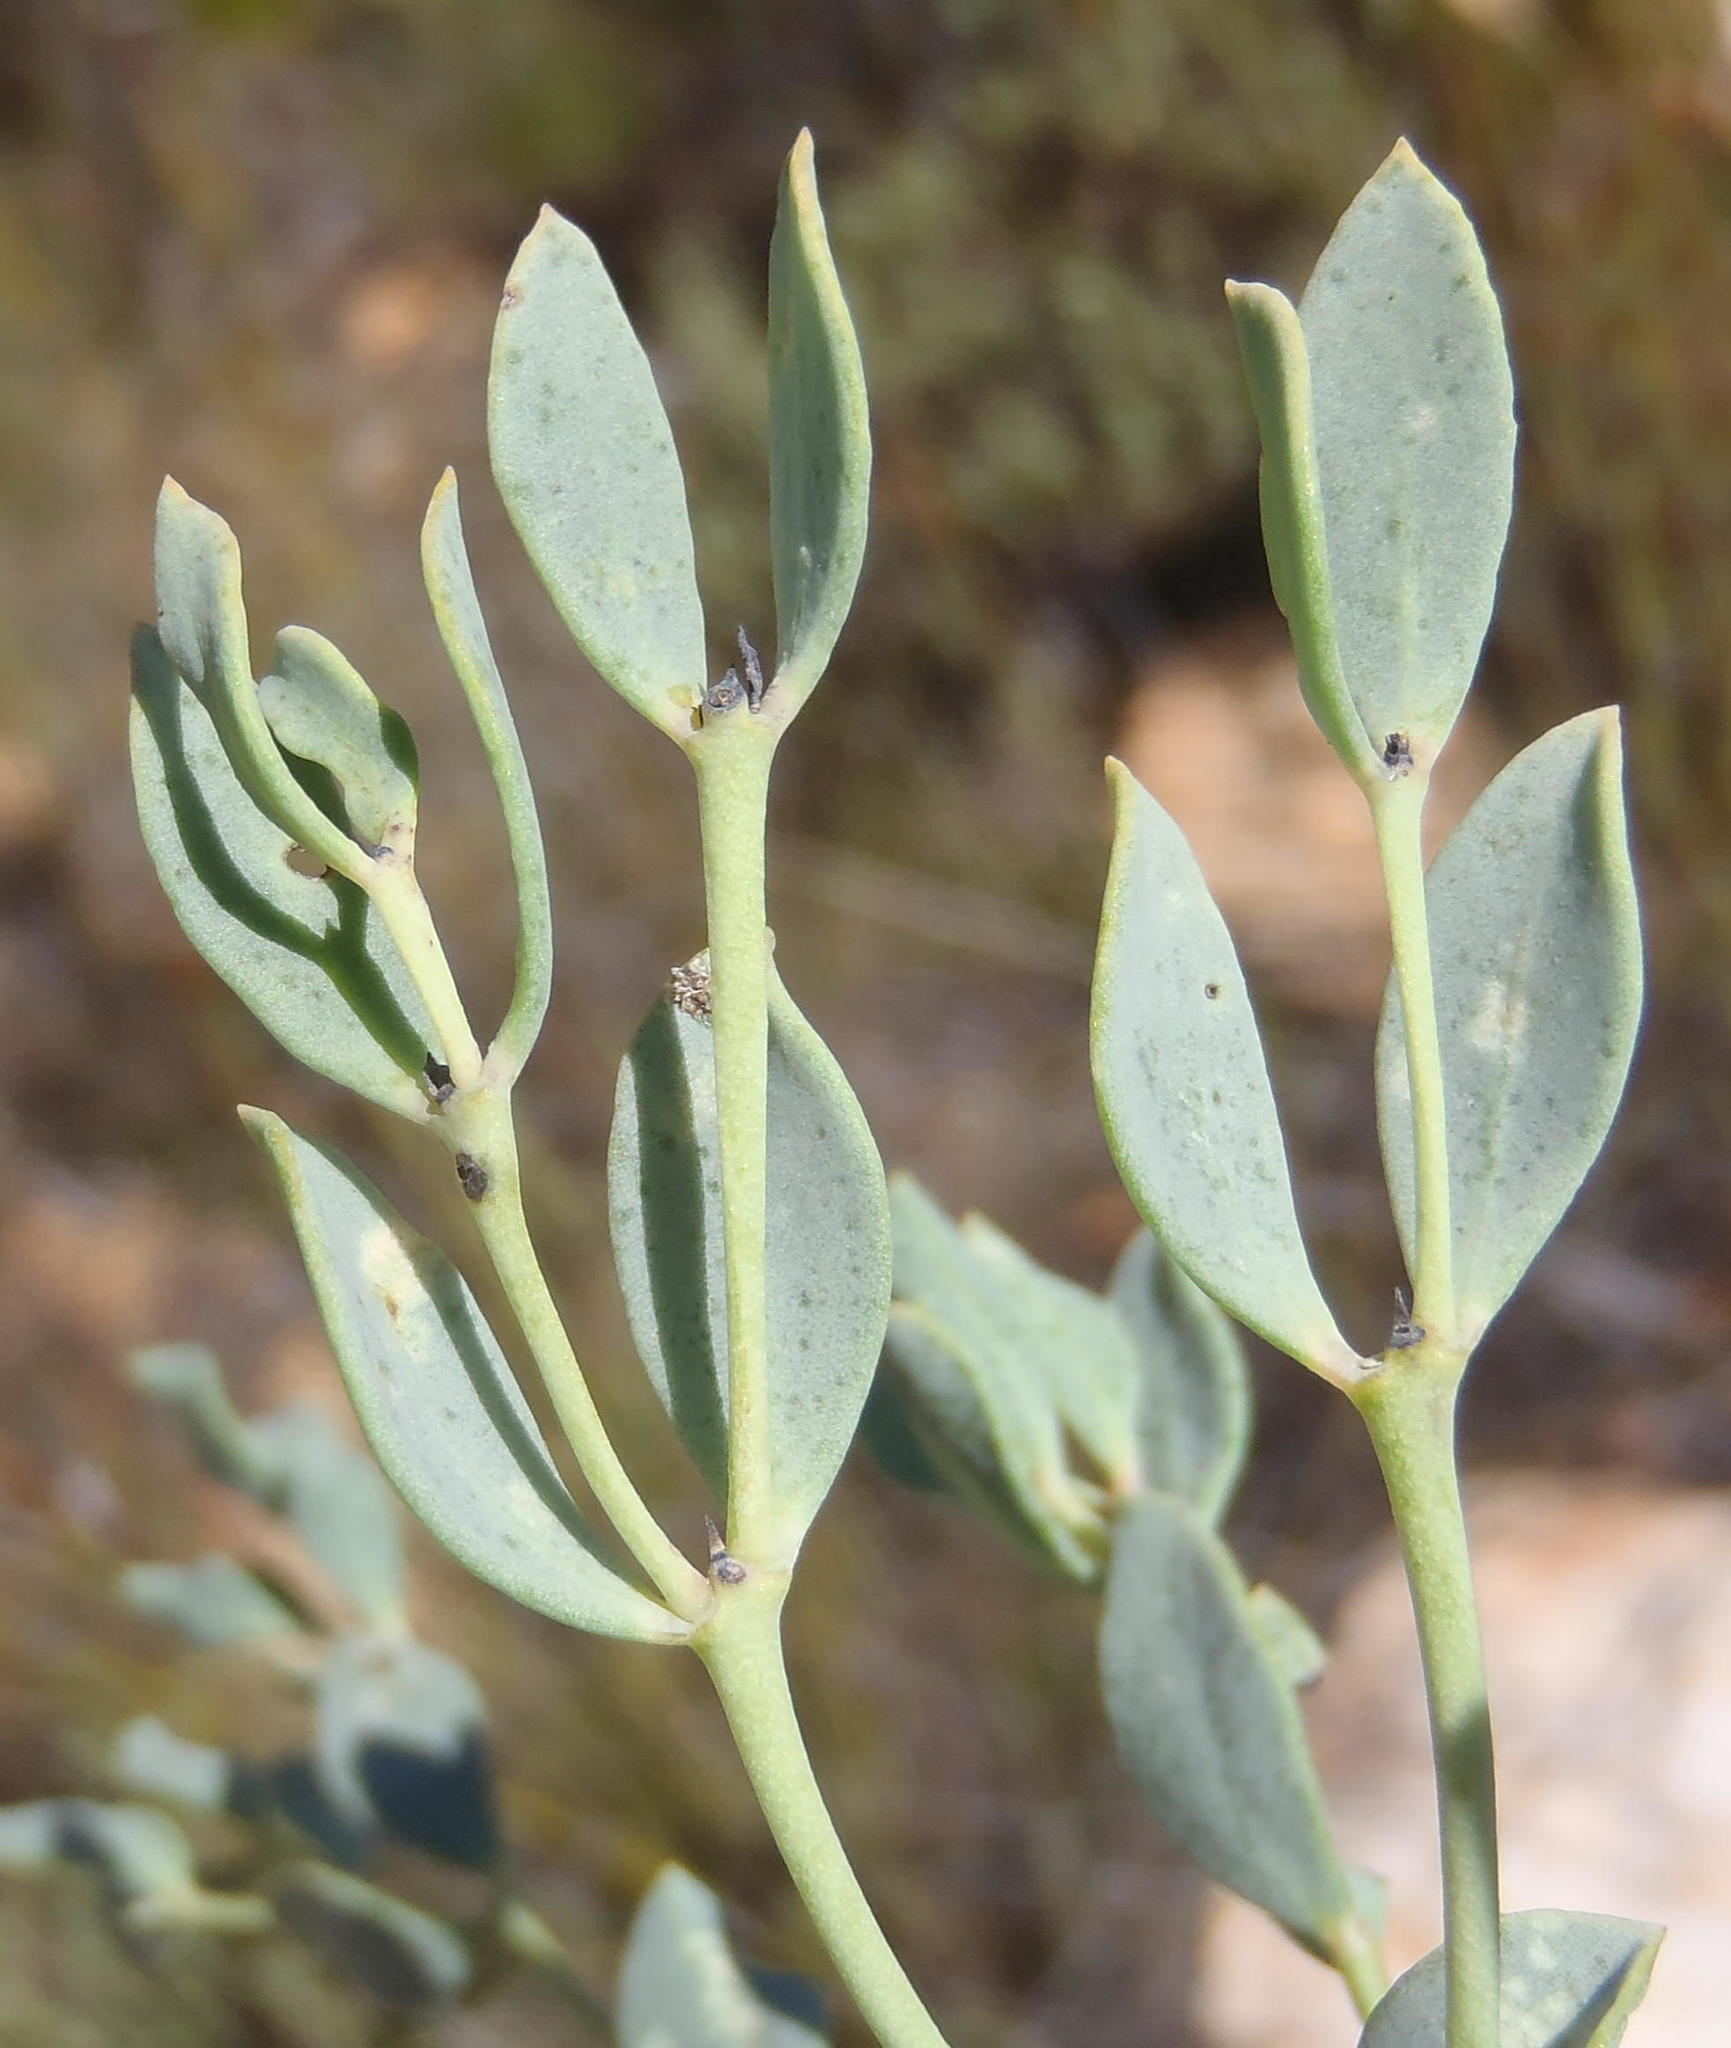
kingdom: Plantae
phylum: Tracheophyta
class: Magnoliopsida
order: Fabales
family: Fabaceae
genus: Rafnia
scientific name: Rafnia rostrata
